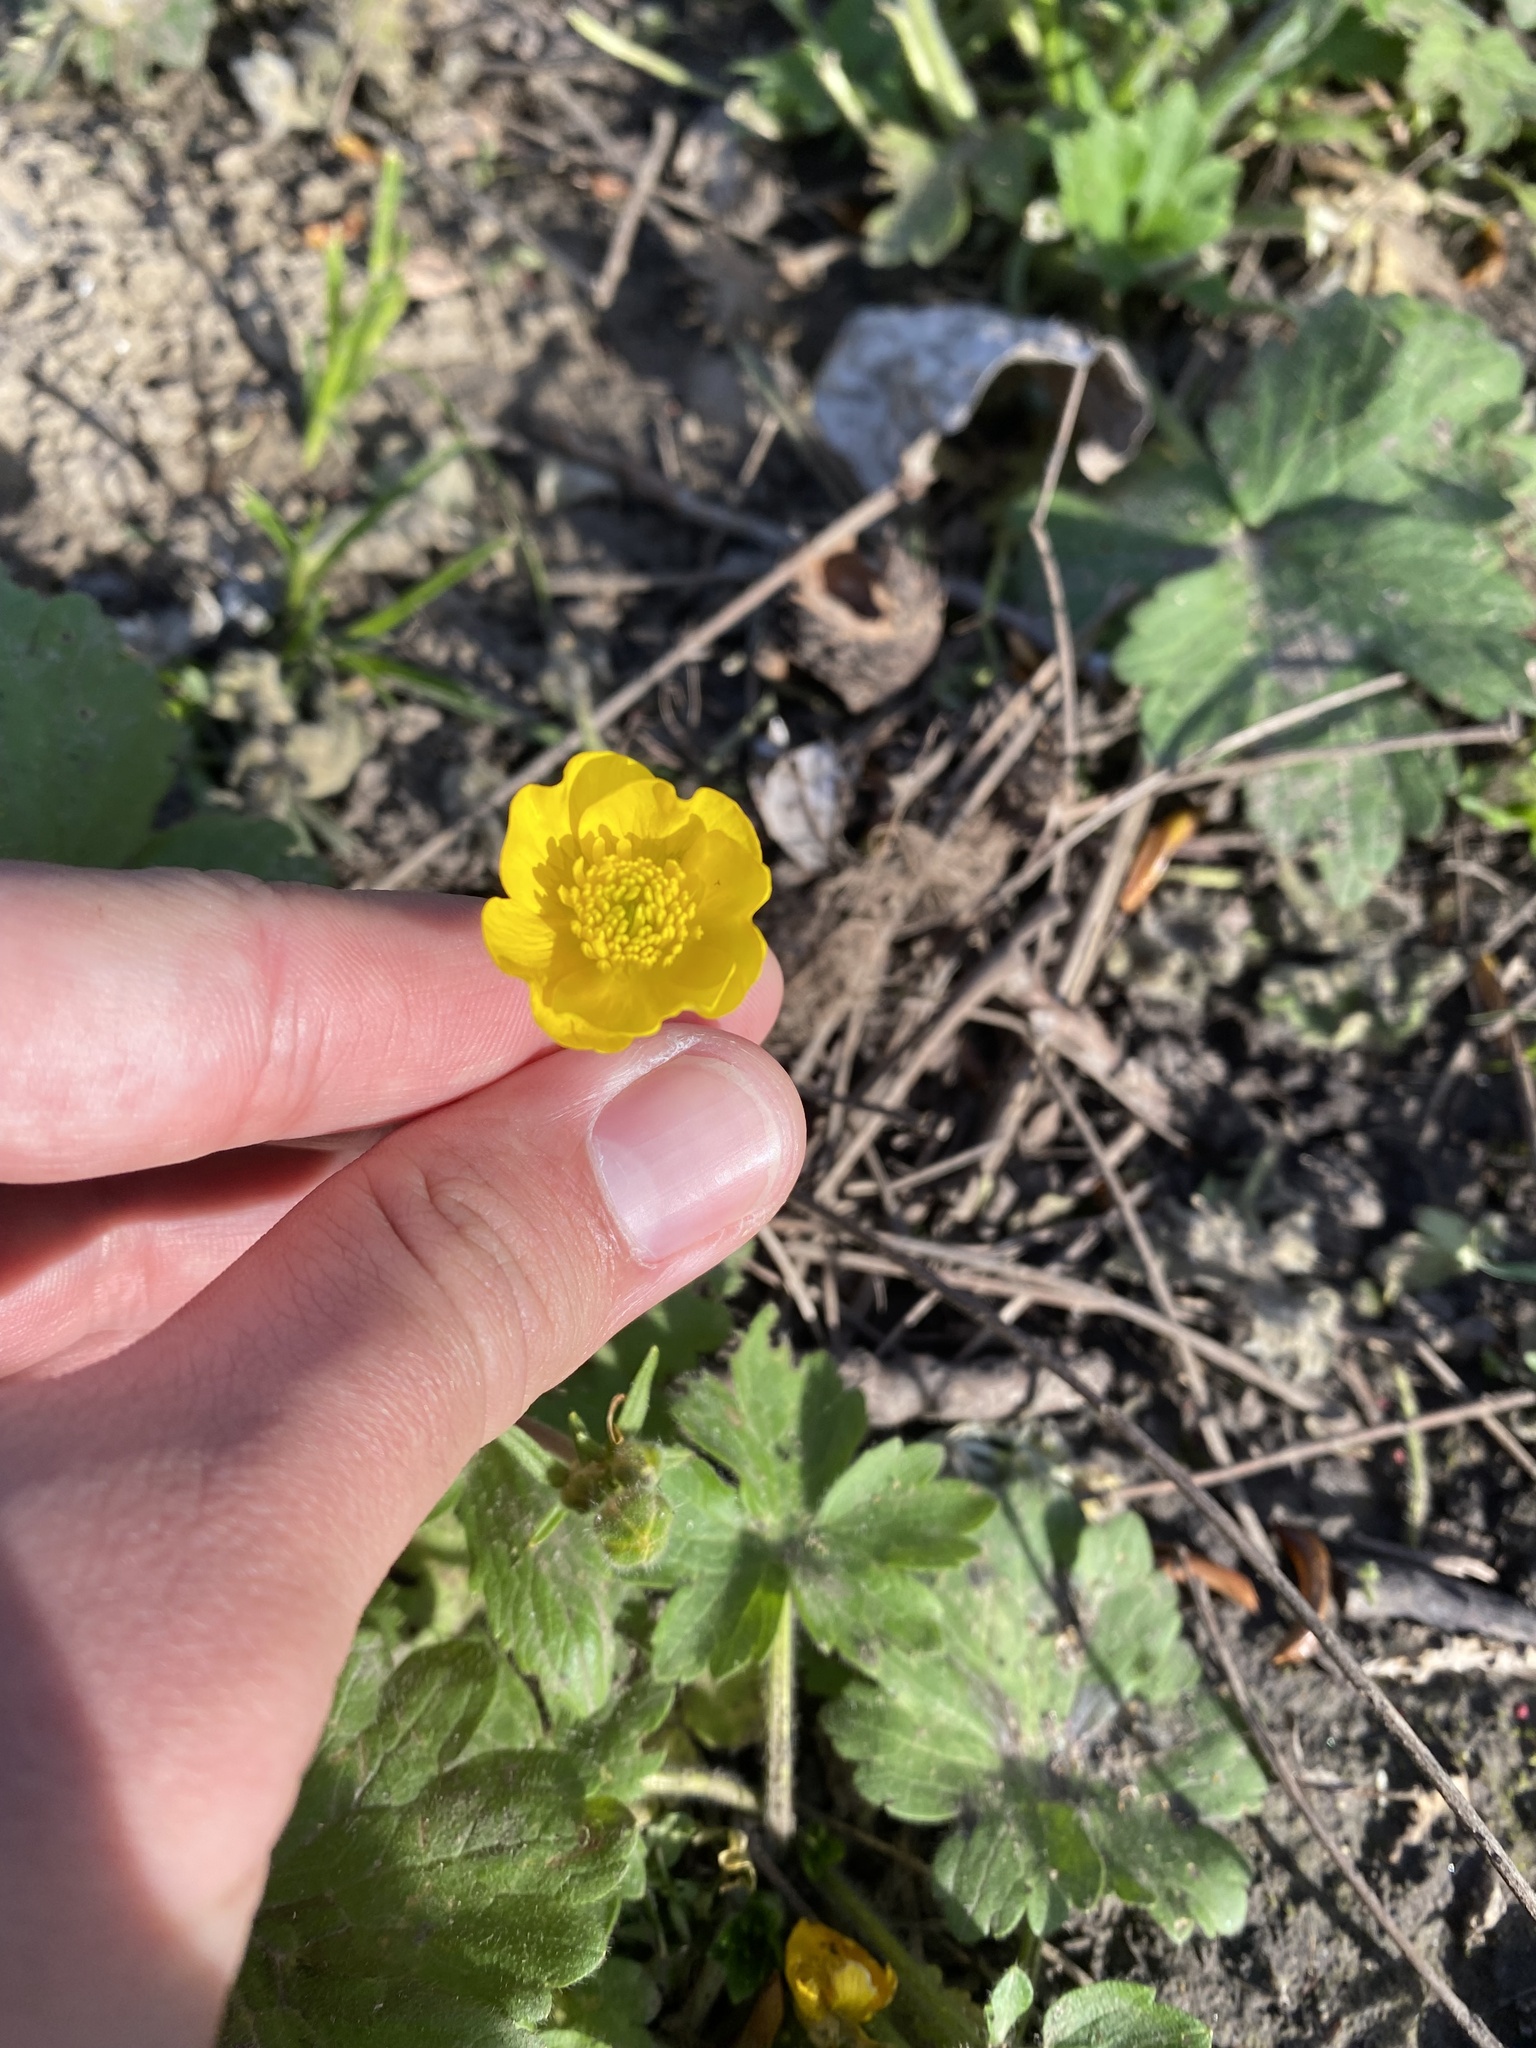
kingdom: Plantae
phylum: Tracheophyta
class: Magnoliopsida
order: Ranunculales
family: Ranunculaceae
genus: Ranunculus
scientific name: Ranunculus constantinopolitanus
